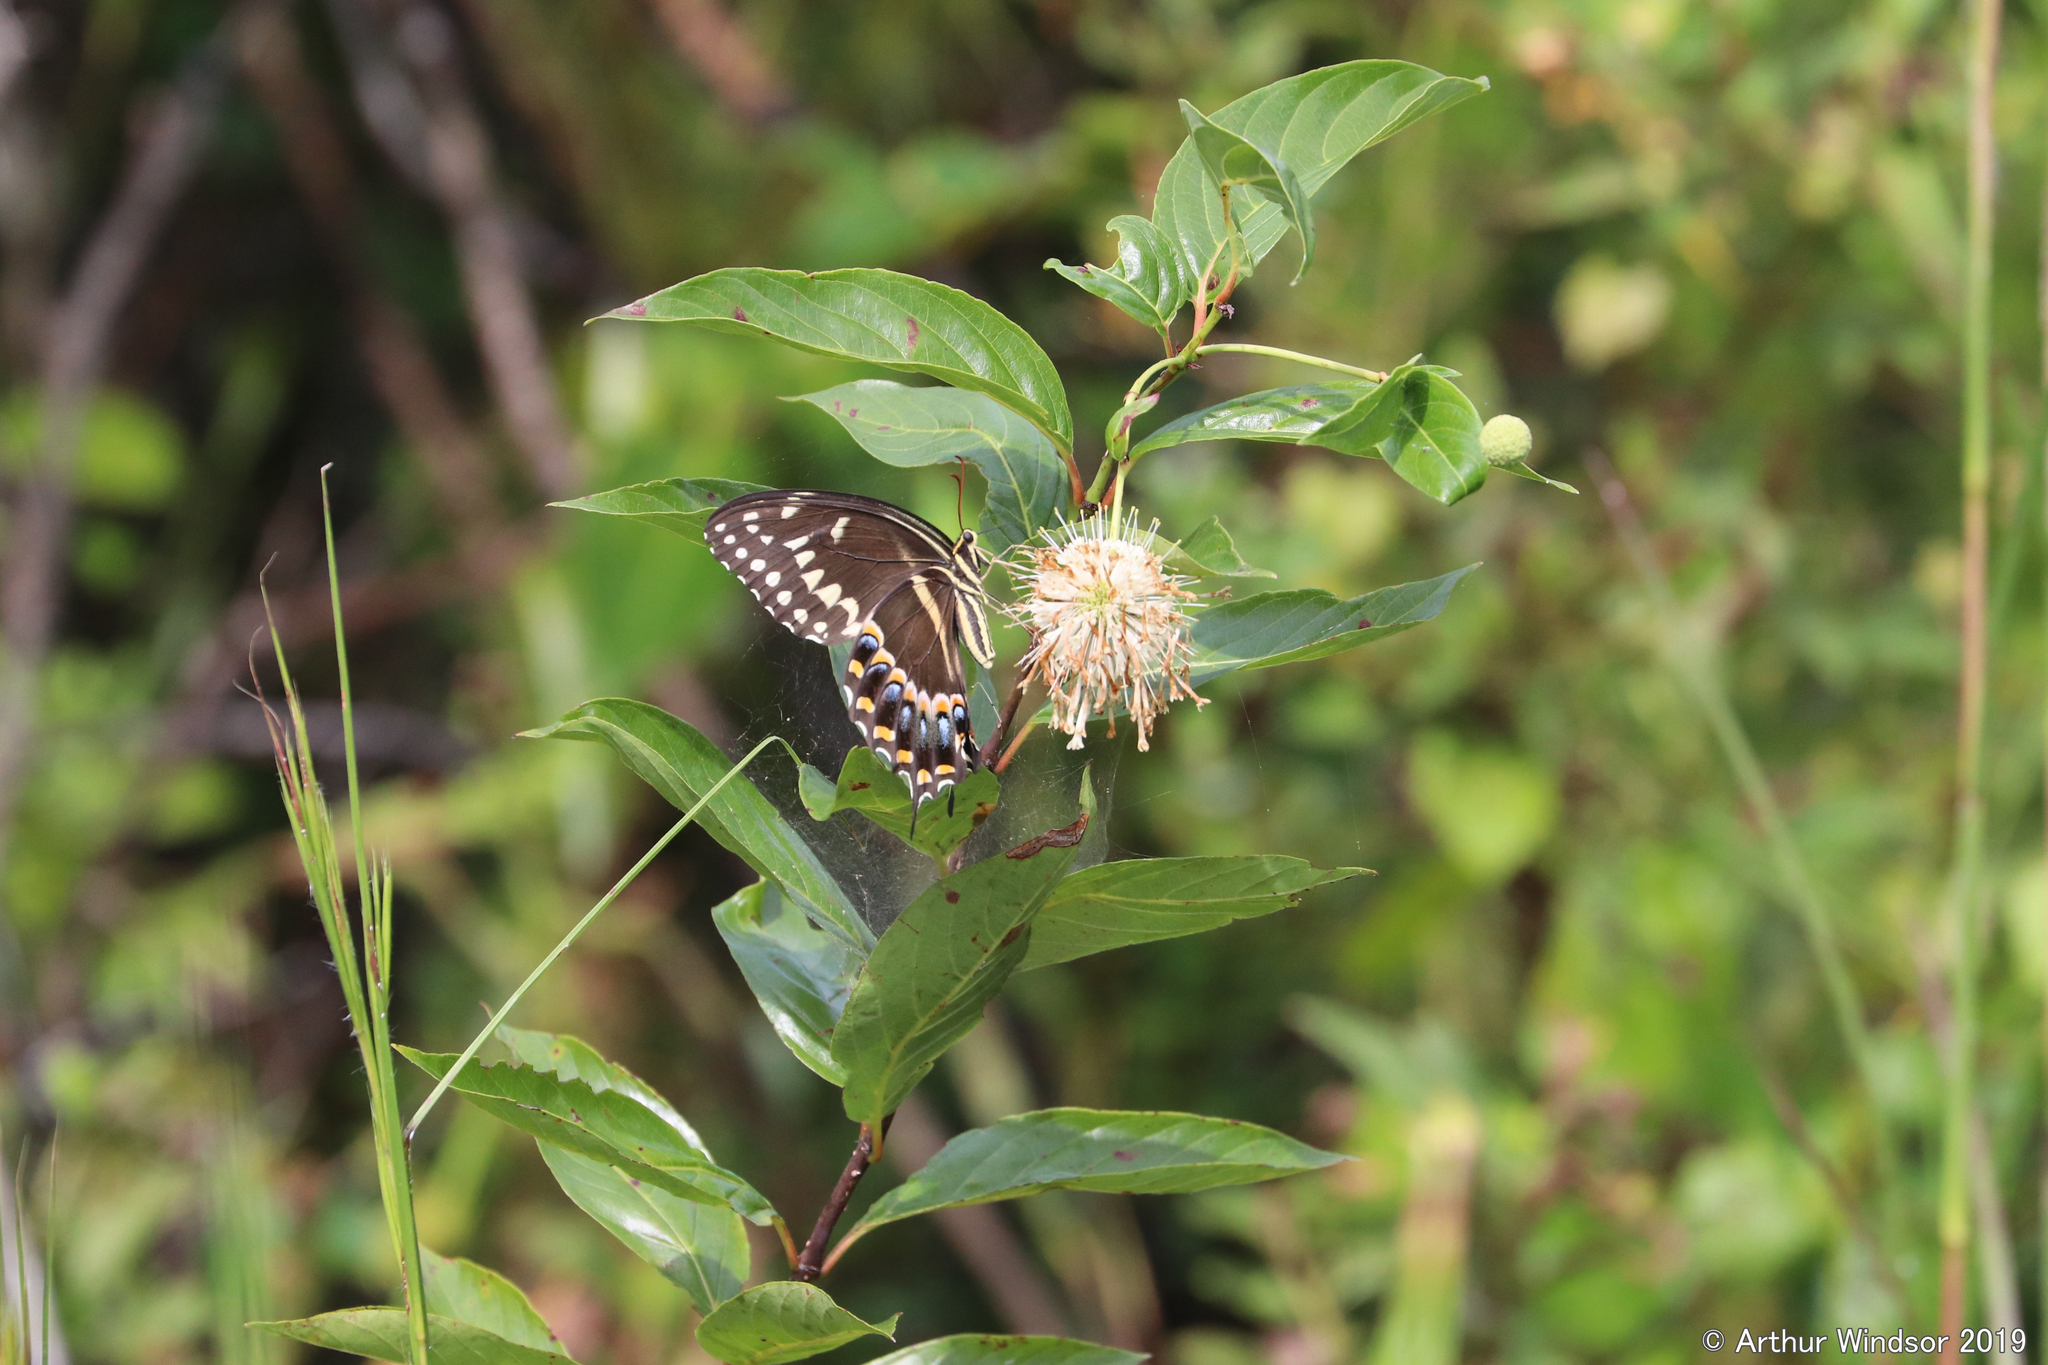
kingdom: Animalia
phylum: Arthropoda
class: Insecta
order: Lepidoptera
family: Papilionidae
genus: Papilio
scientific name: Papilio palamedes
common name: Palamedes swallowtail
